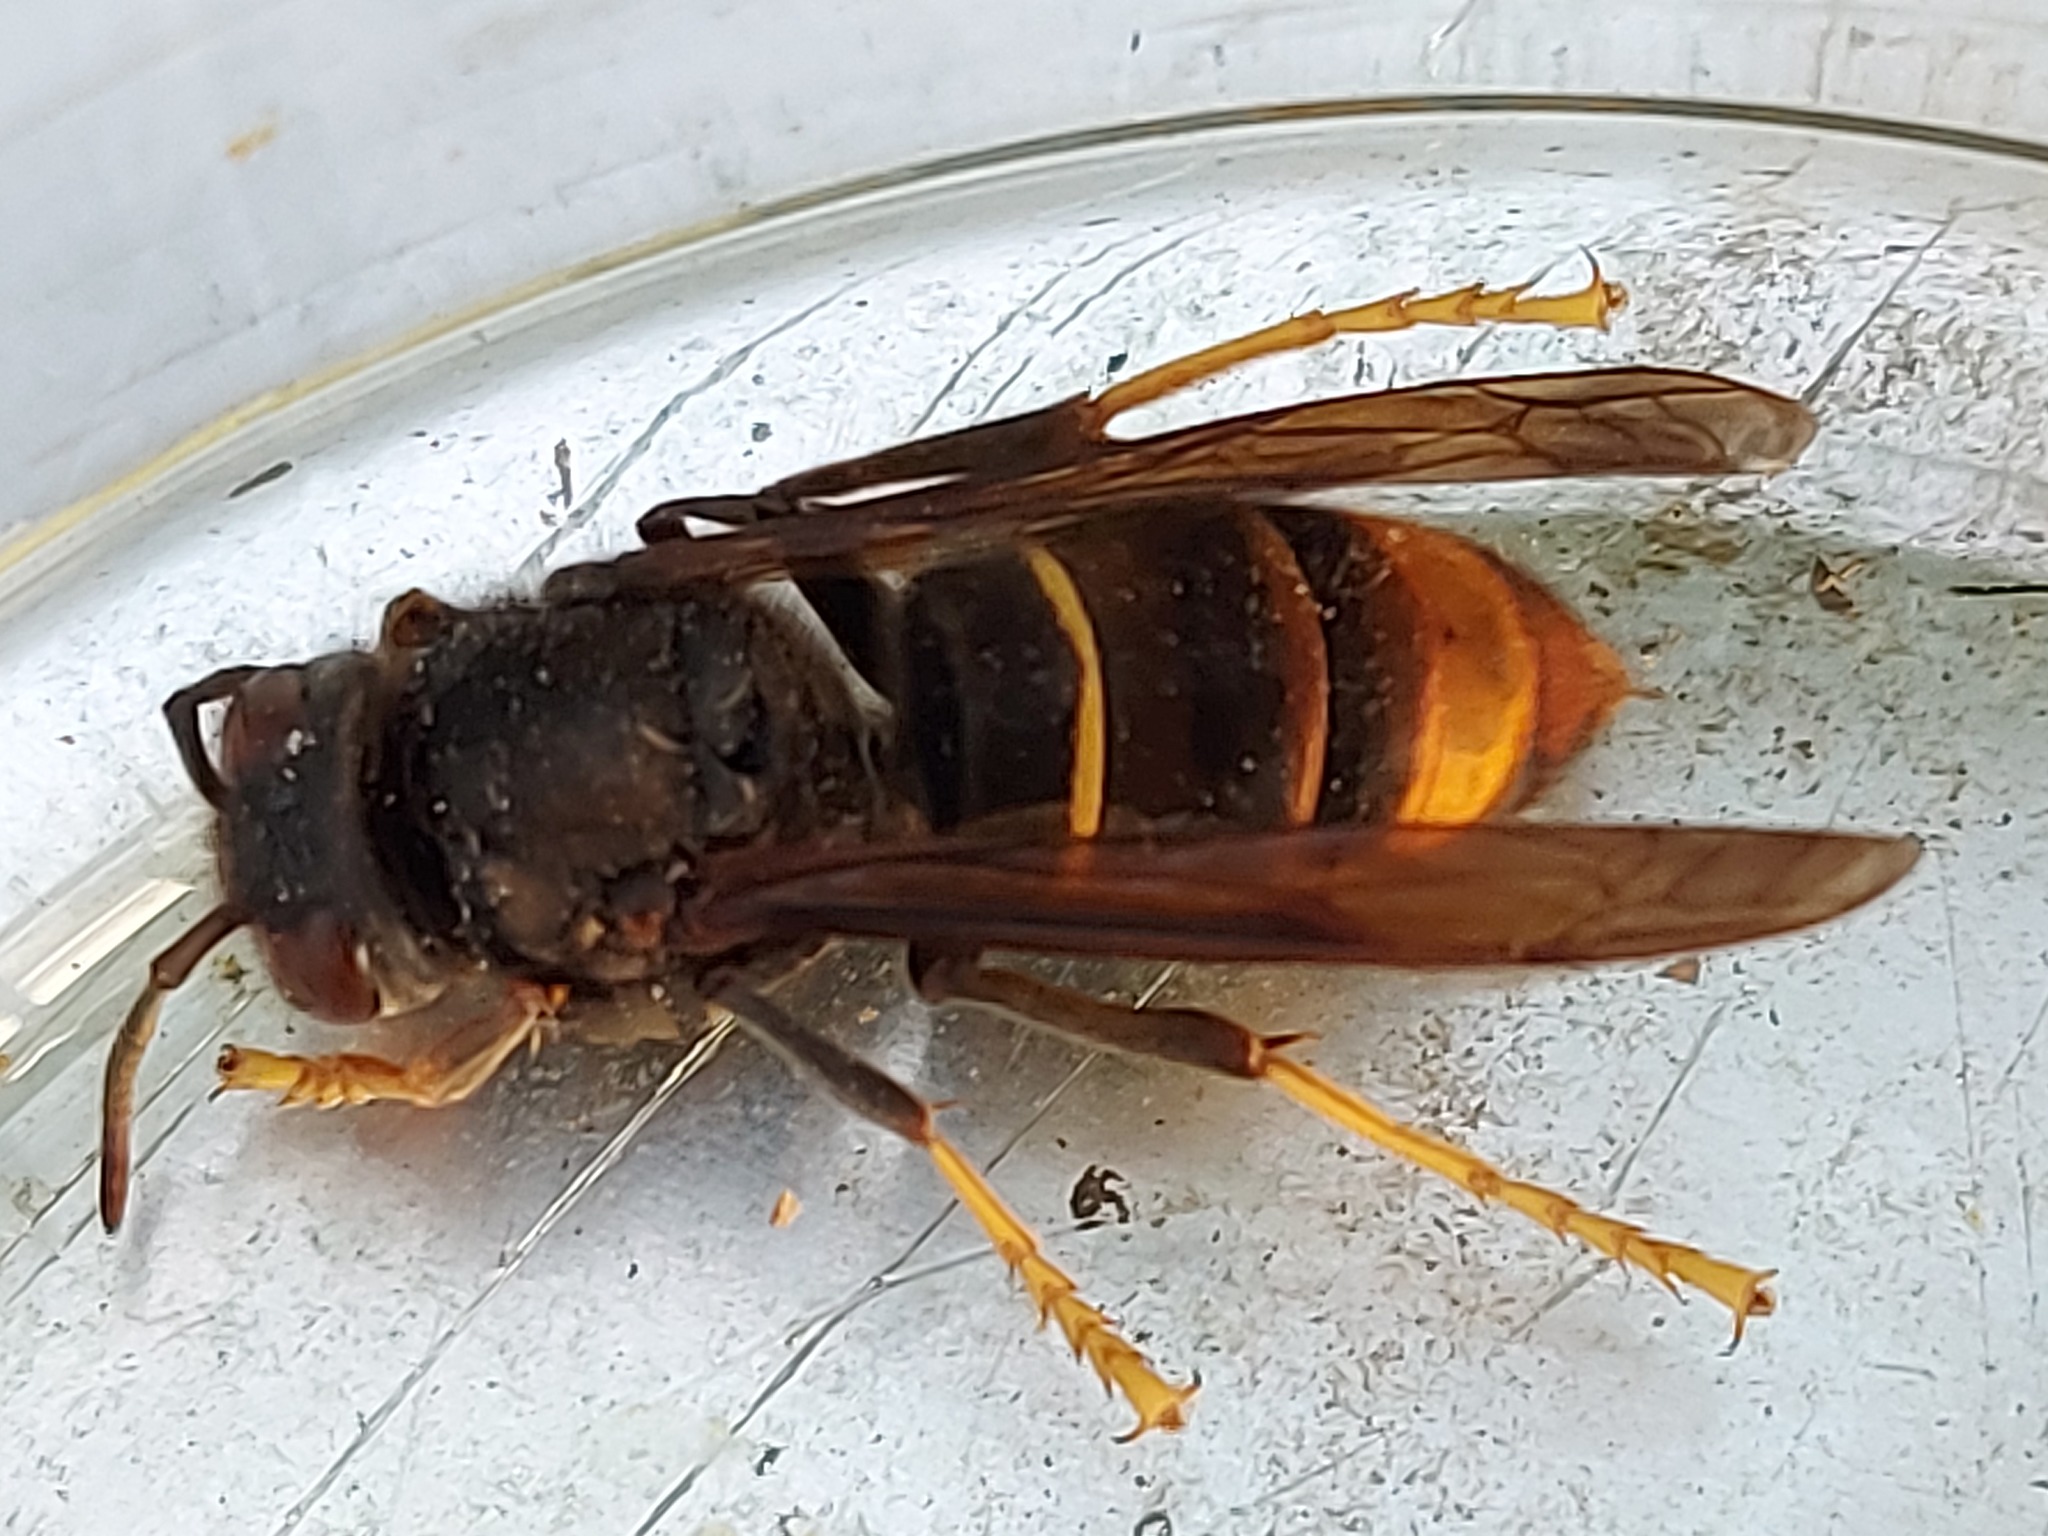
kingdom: Animalia
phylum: Arthropoda
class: Insecta
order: Hymenoptera
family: Vespidae
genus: Vespa
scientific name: Vespa velutina
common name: Asian hornet
